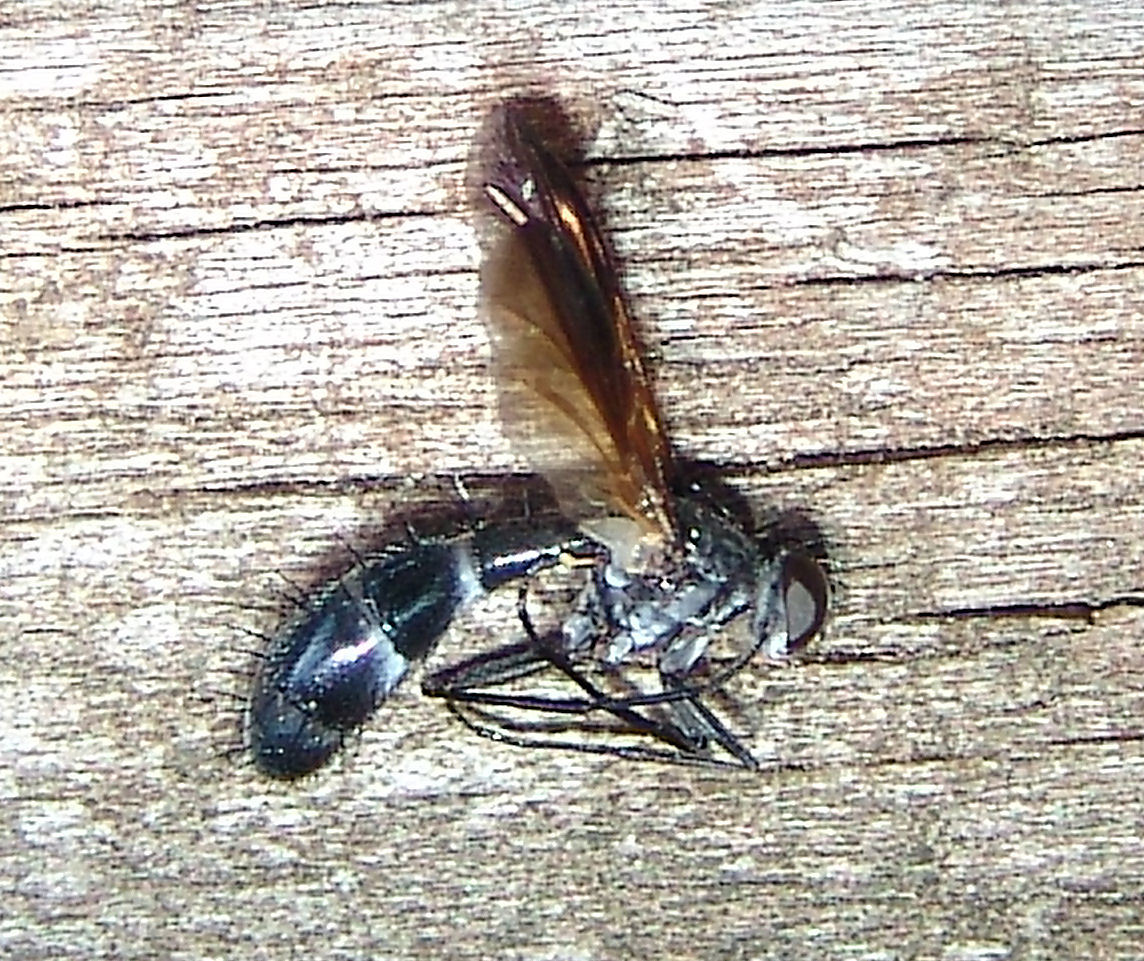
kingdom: Animalia
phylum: Arthropoda
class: Insecta
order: Diptera
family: Tachinidae
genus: Cordyligaster
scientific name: Cordyligaster septentrionalis
